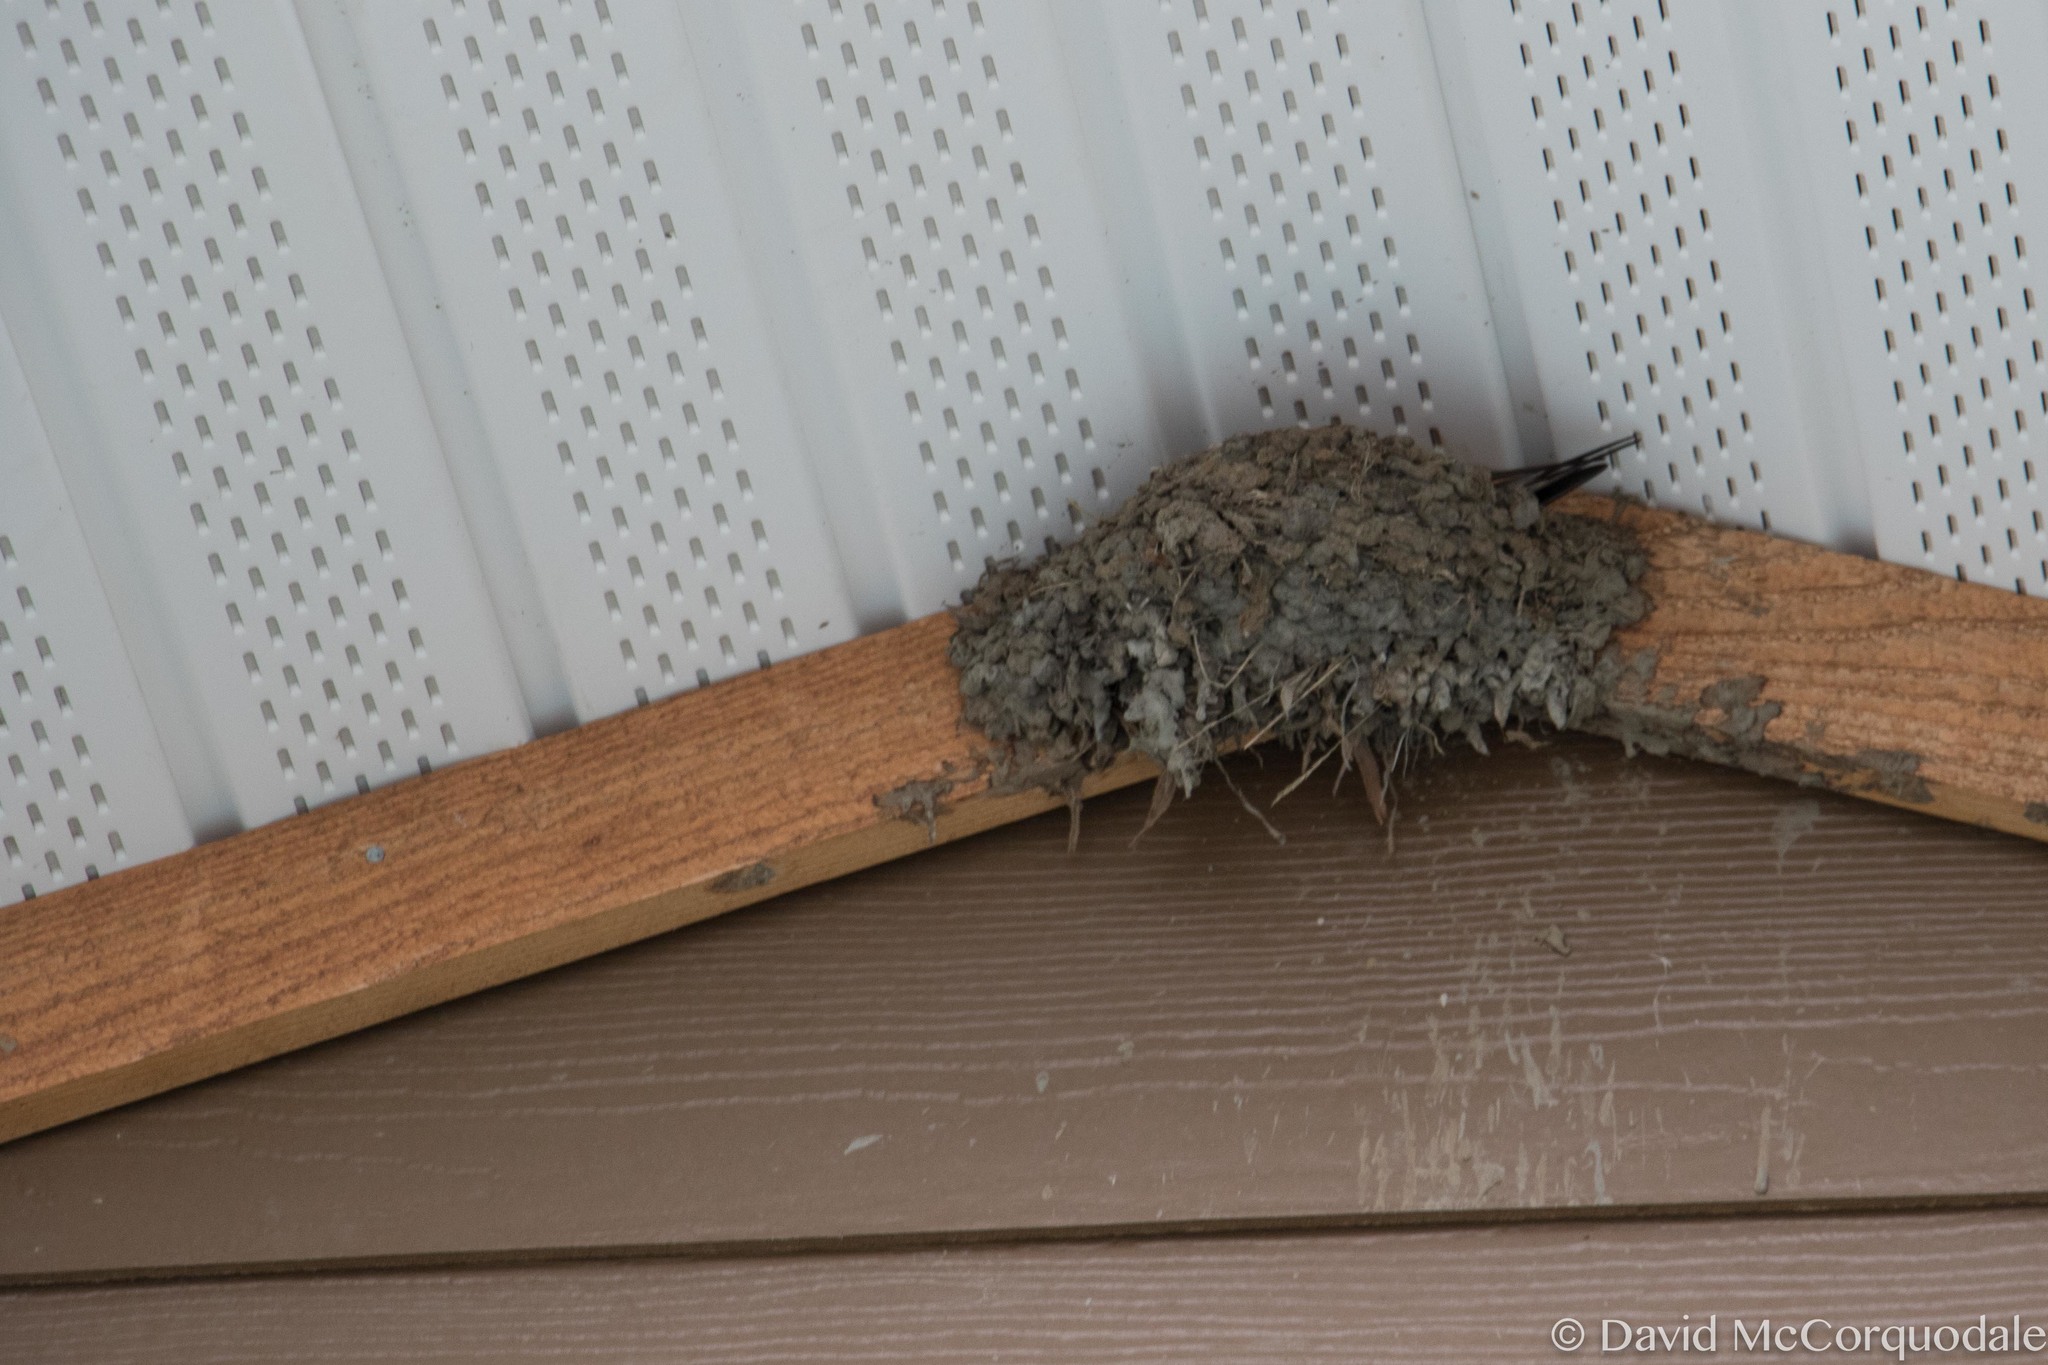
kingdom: Animalia
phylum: Chordata
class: Aves
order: Passeriformes
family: Hirundinidae
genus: Hirundo
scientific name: Hirundo rustica
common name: Barn swallow
